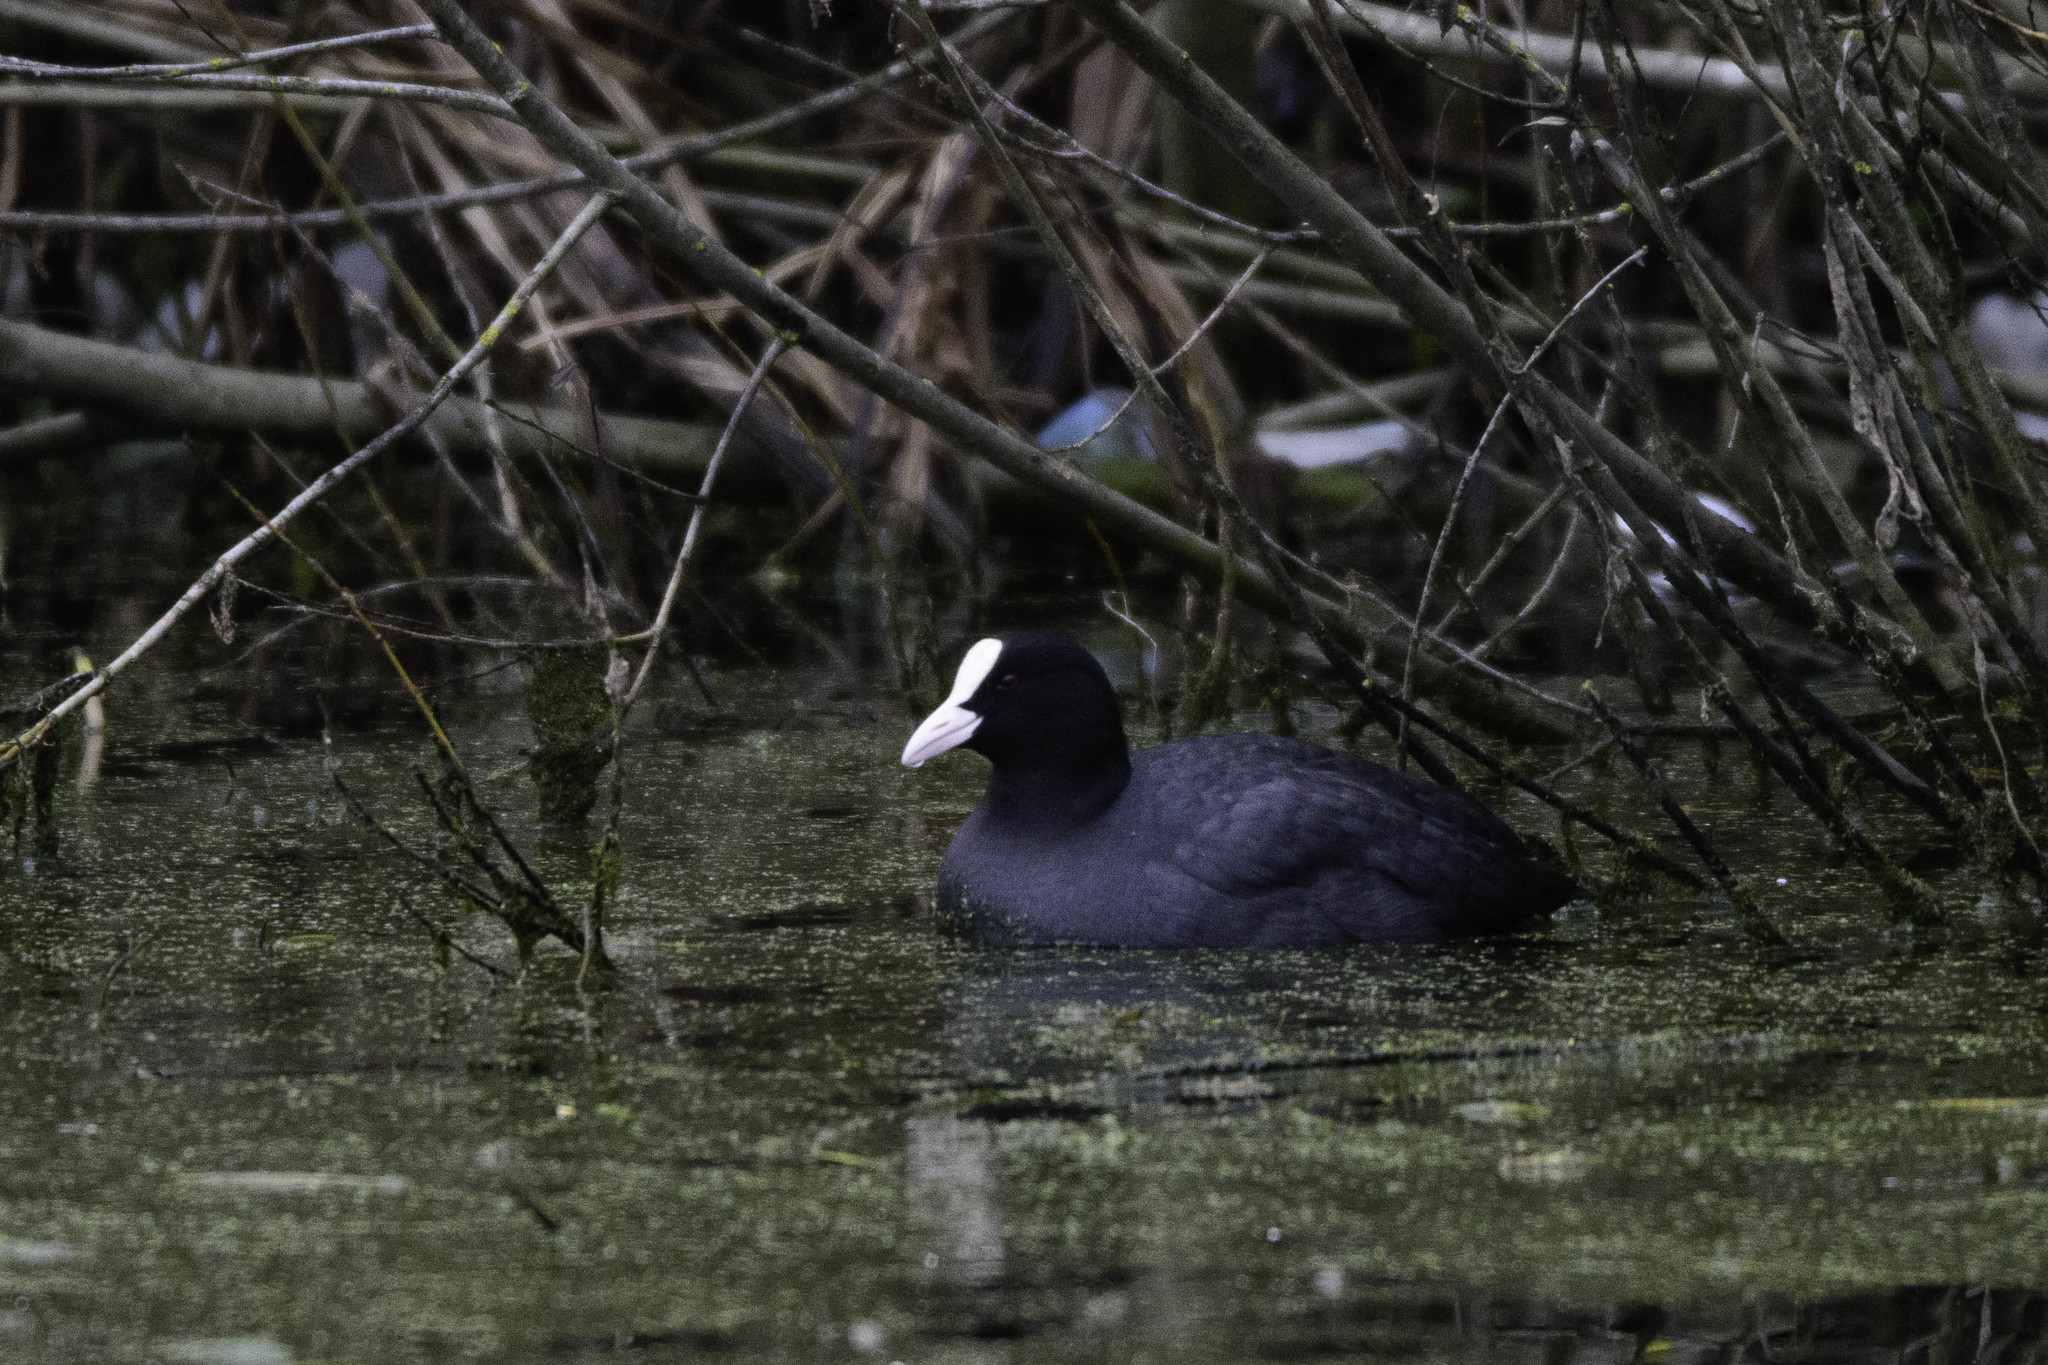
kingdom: Animalia
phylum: Chordata
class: Aves
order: Gruiformes
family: Rallidae
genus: Fulica
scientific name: Fulica atra
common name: Eurasian coot
